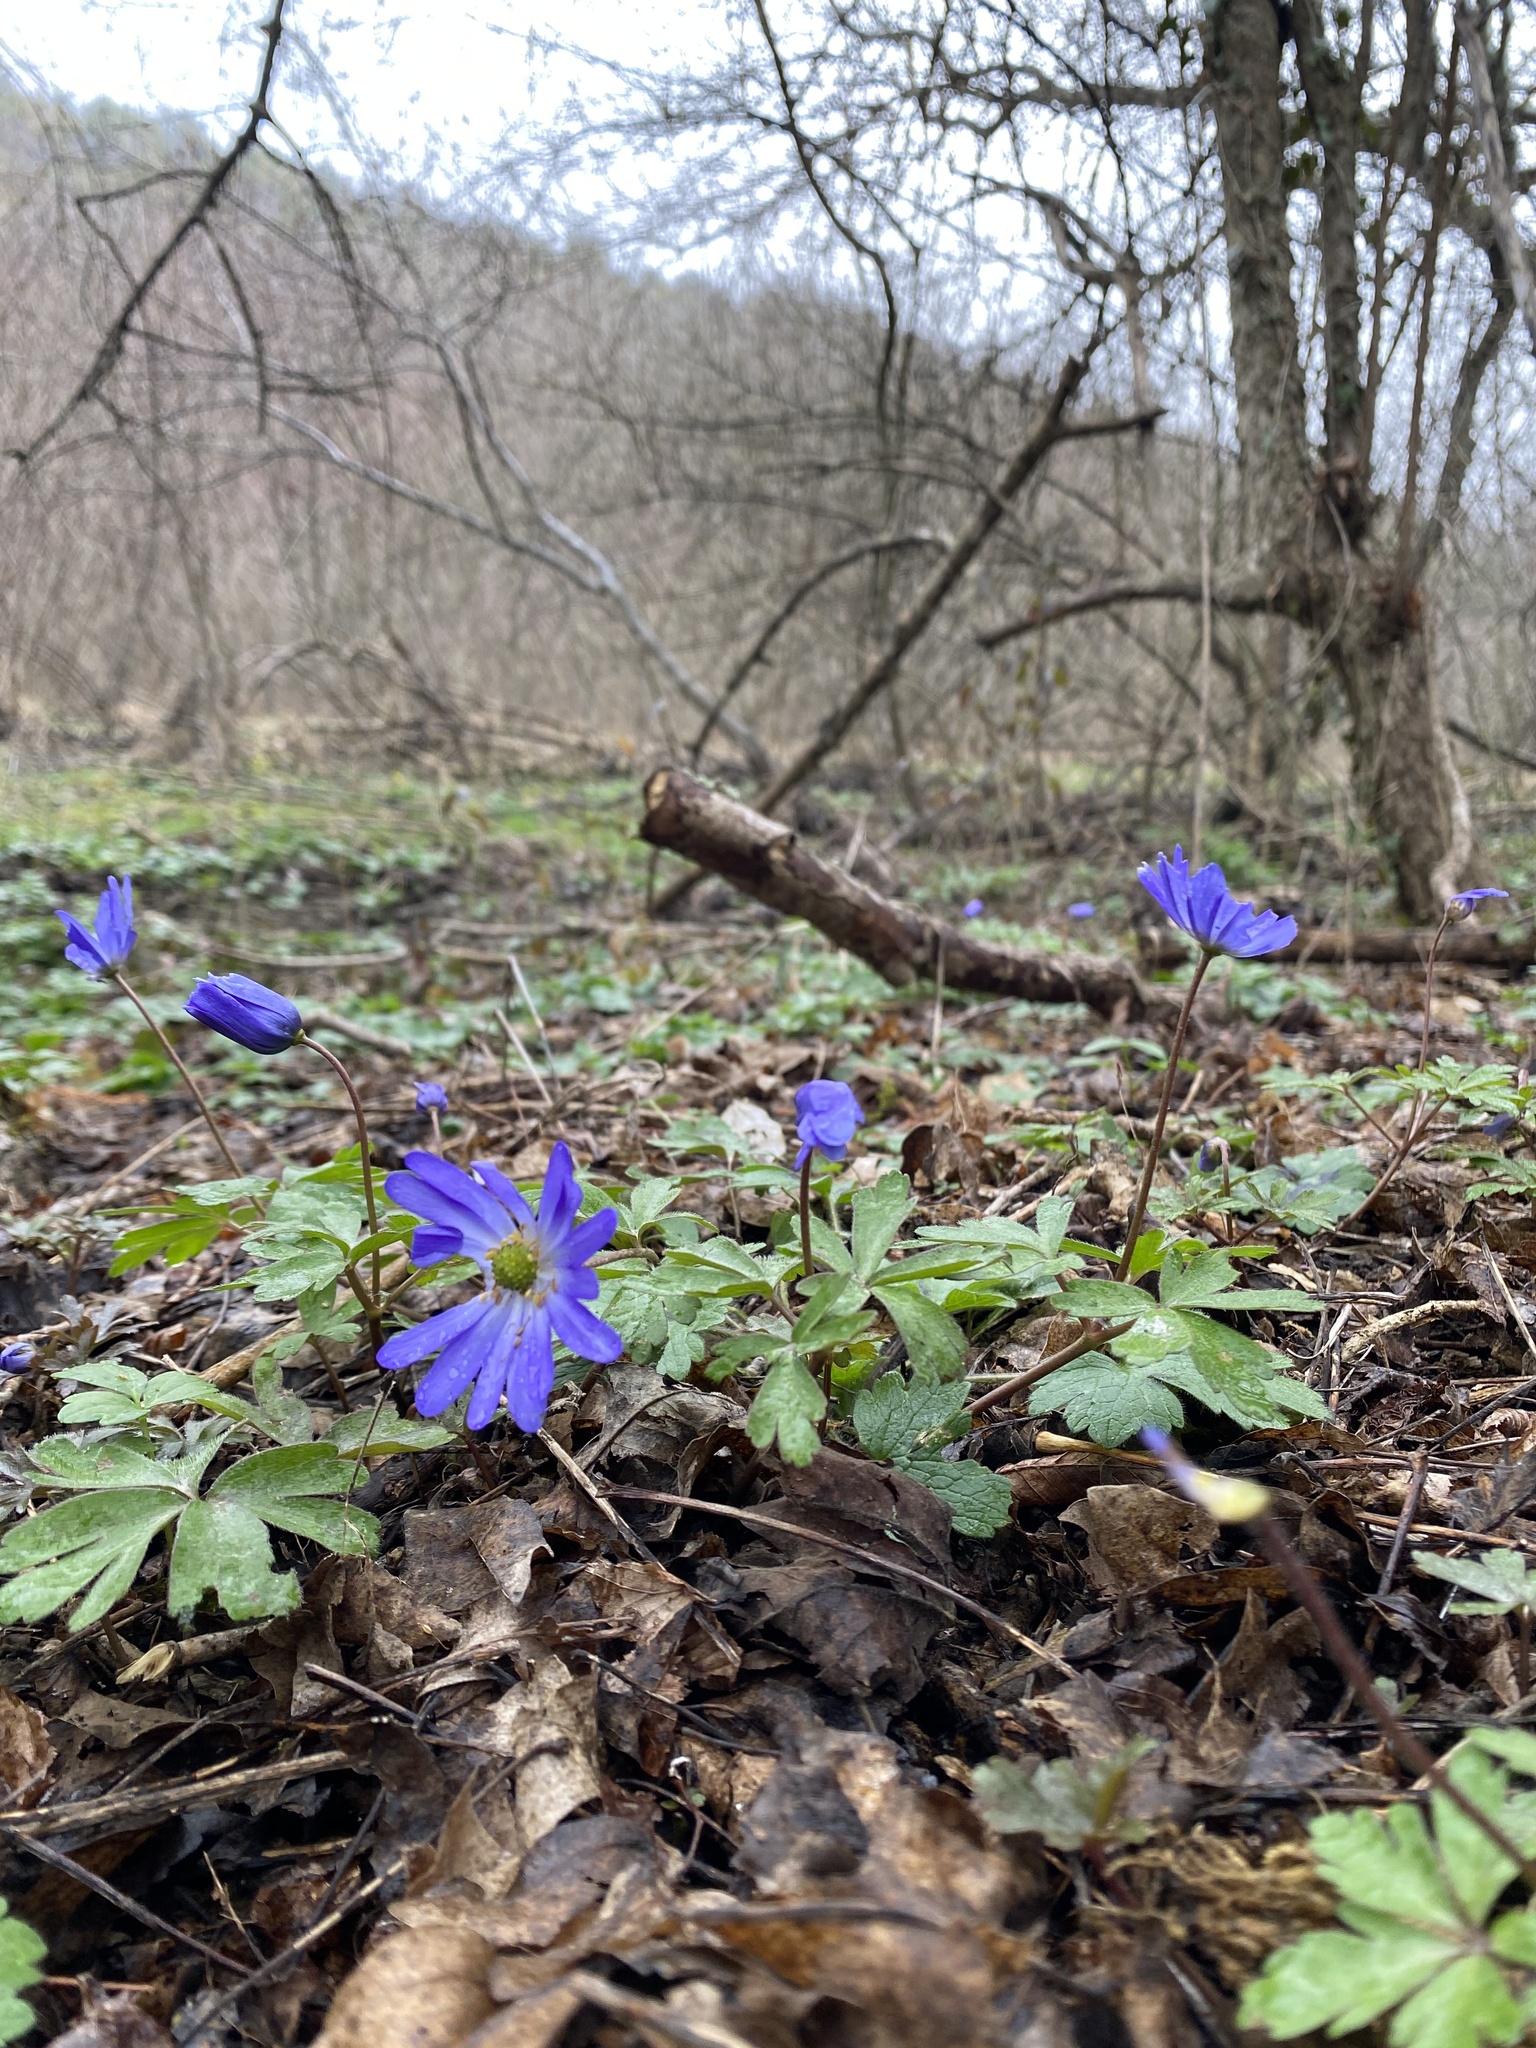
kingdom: Plantae
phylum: Tracheophyta
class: Magnoliopsida
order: Ranunculales
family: Ranunculaceae
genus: Anemone
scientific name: Anemone blanda
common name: Balkan anemone
